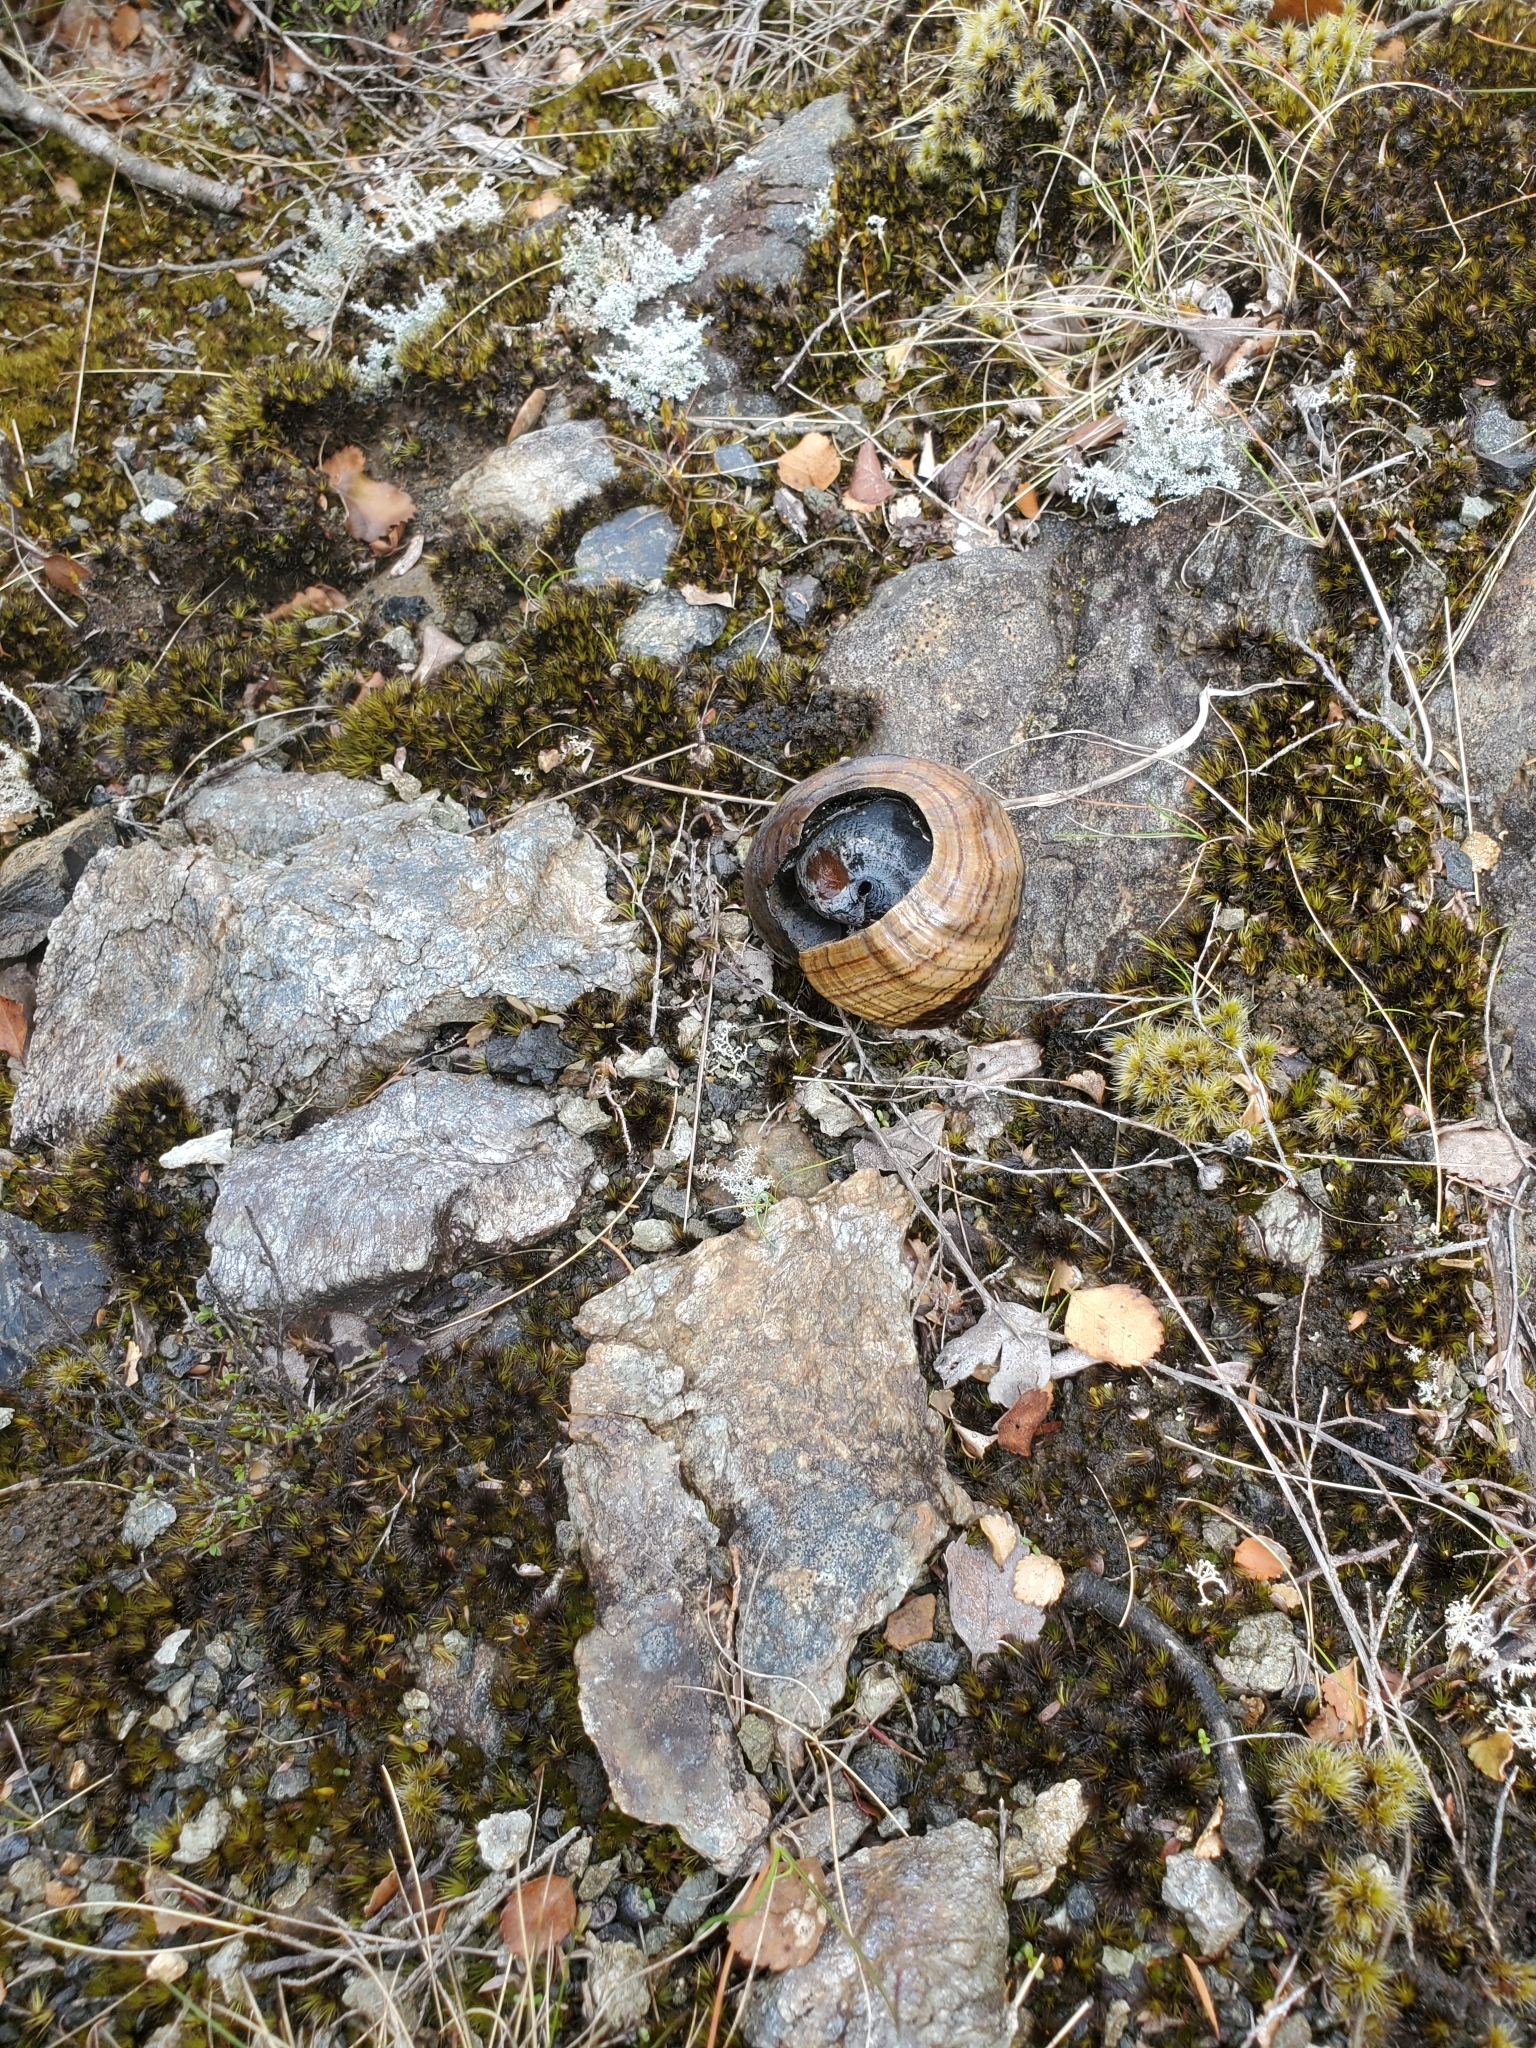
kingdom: Animalia
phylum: Mollusca
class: Gastropoda
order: Stylommatophora
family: Rhytididae
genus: Powelliphanta
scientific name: Powelliphanta hochstetteri
